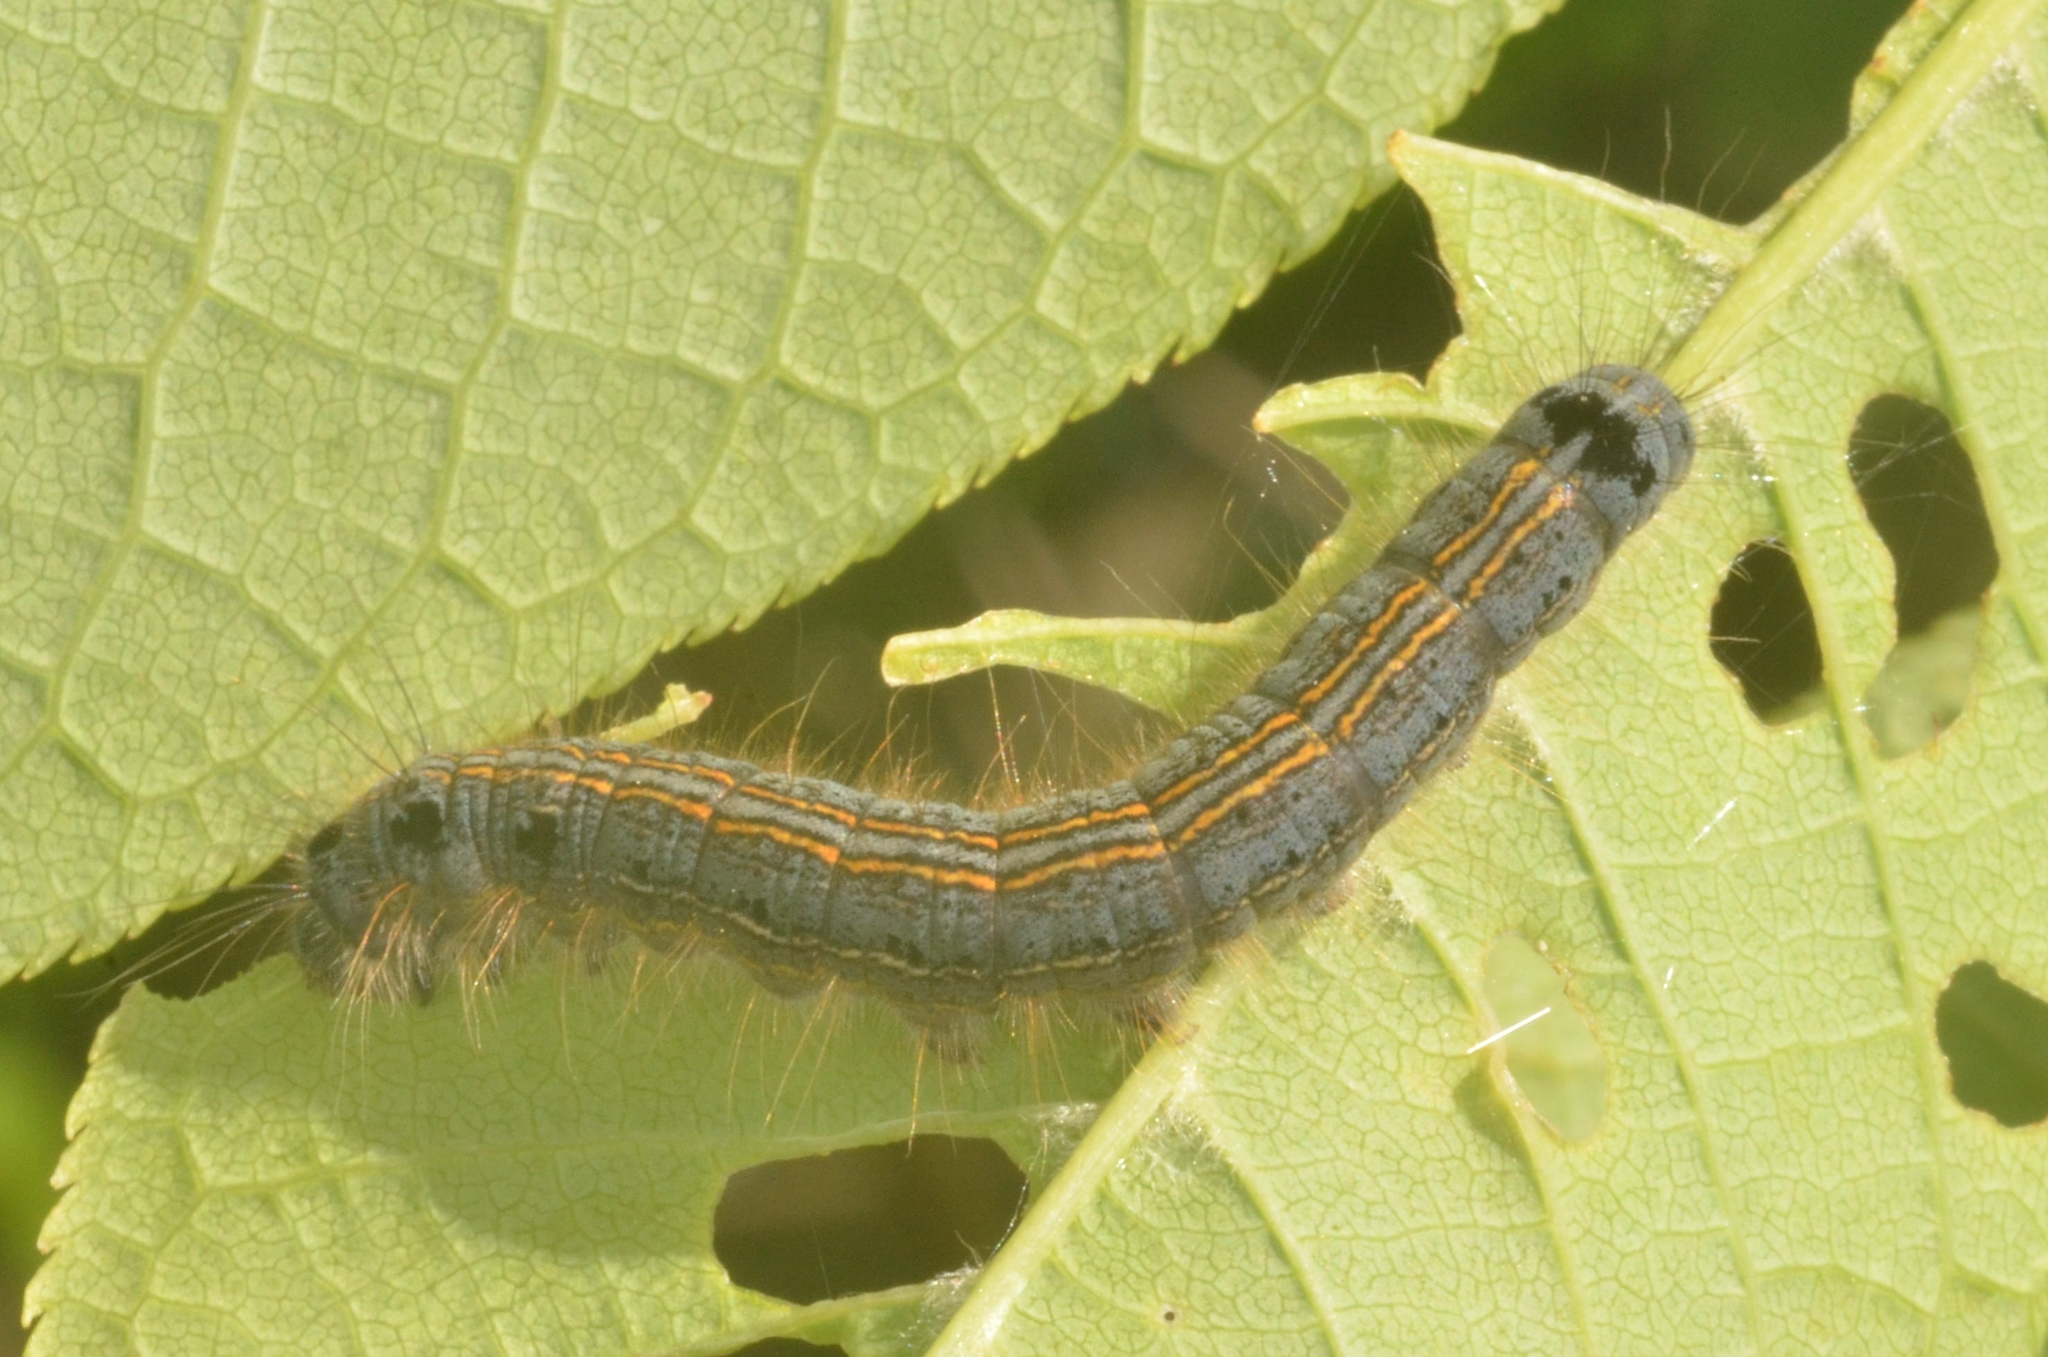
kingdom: Animalia
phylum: Arthropoda
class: Insecta
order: Lepidoptera
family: Lasiocampidae
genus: Malacosoma
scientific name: Malacosoma neustria
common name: The lackey
